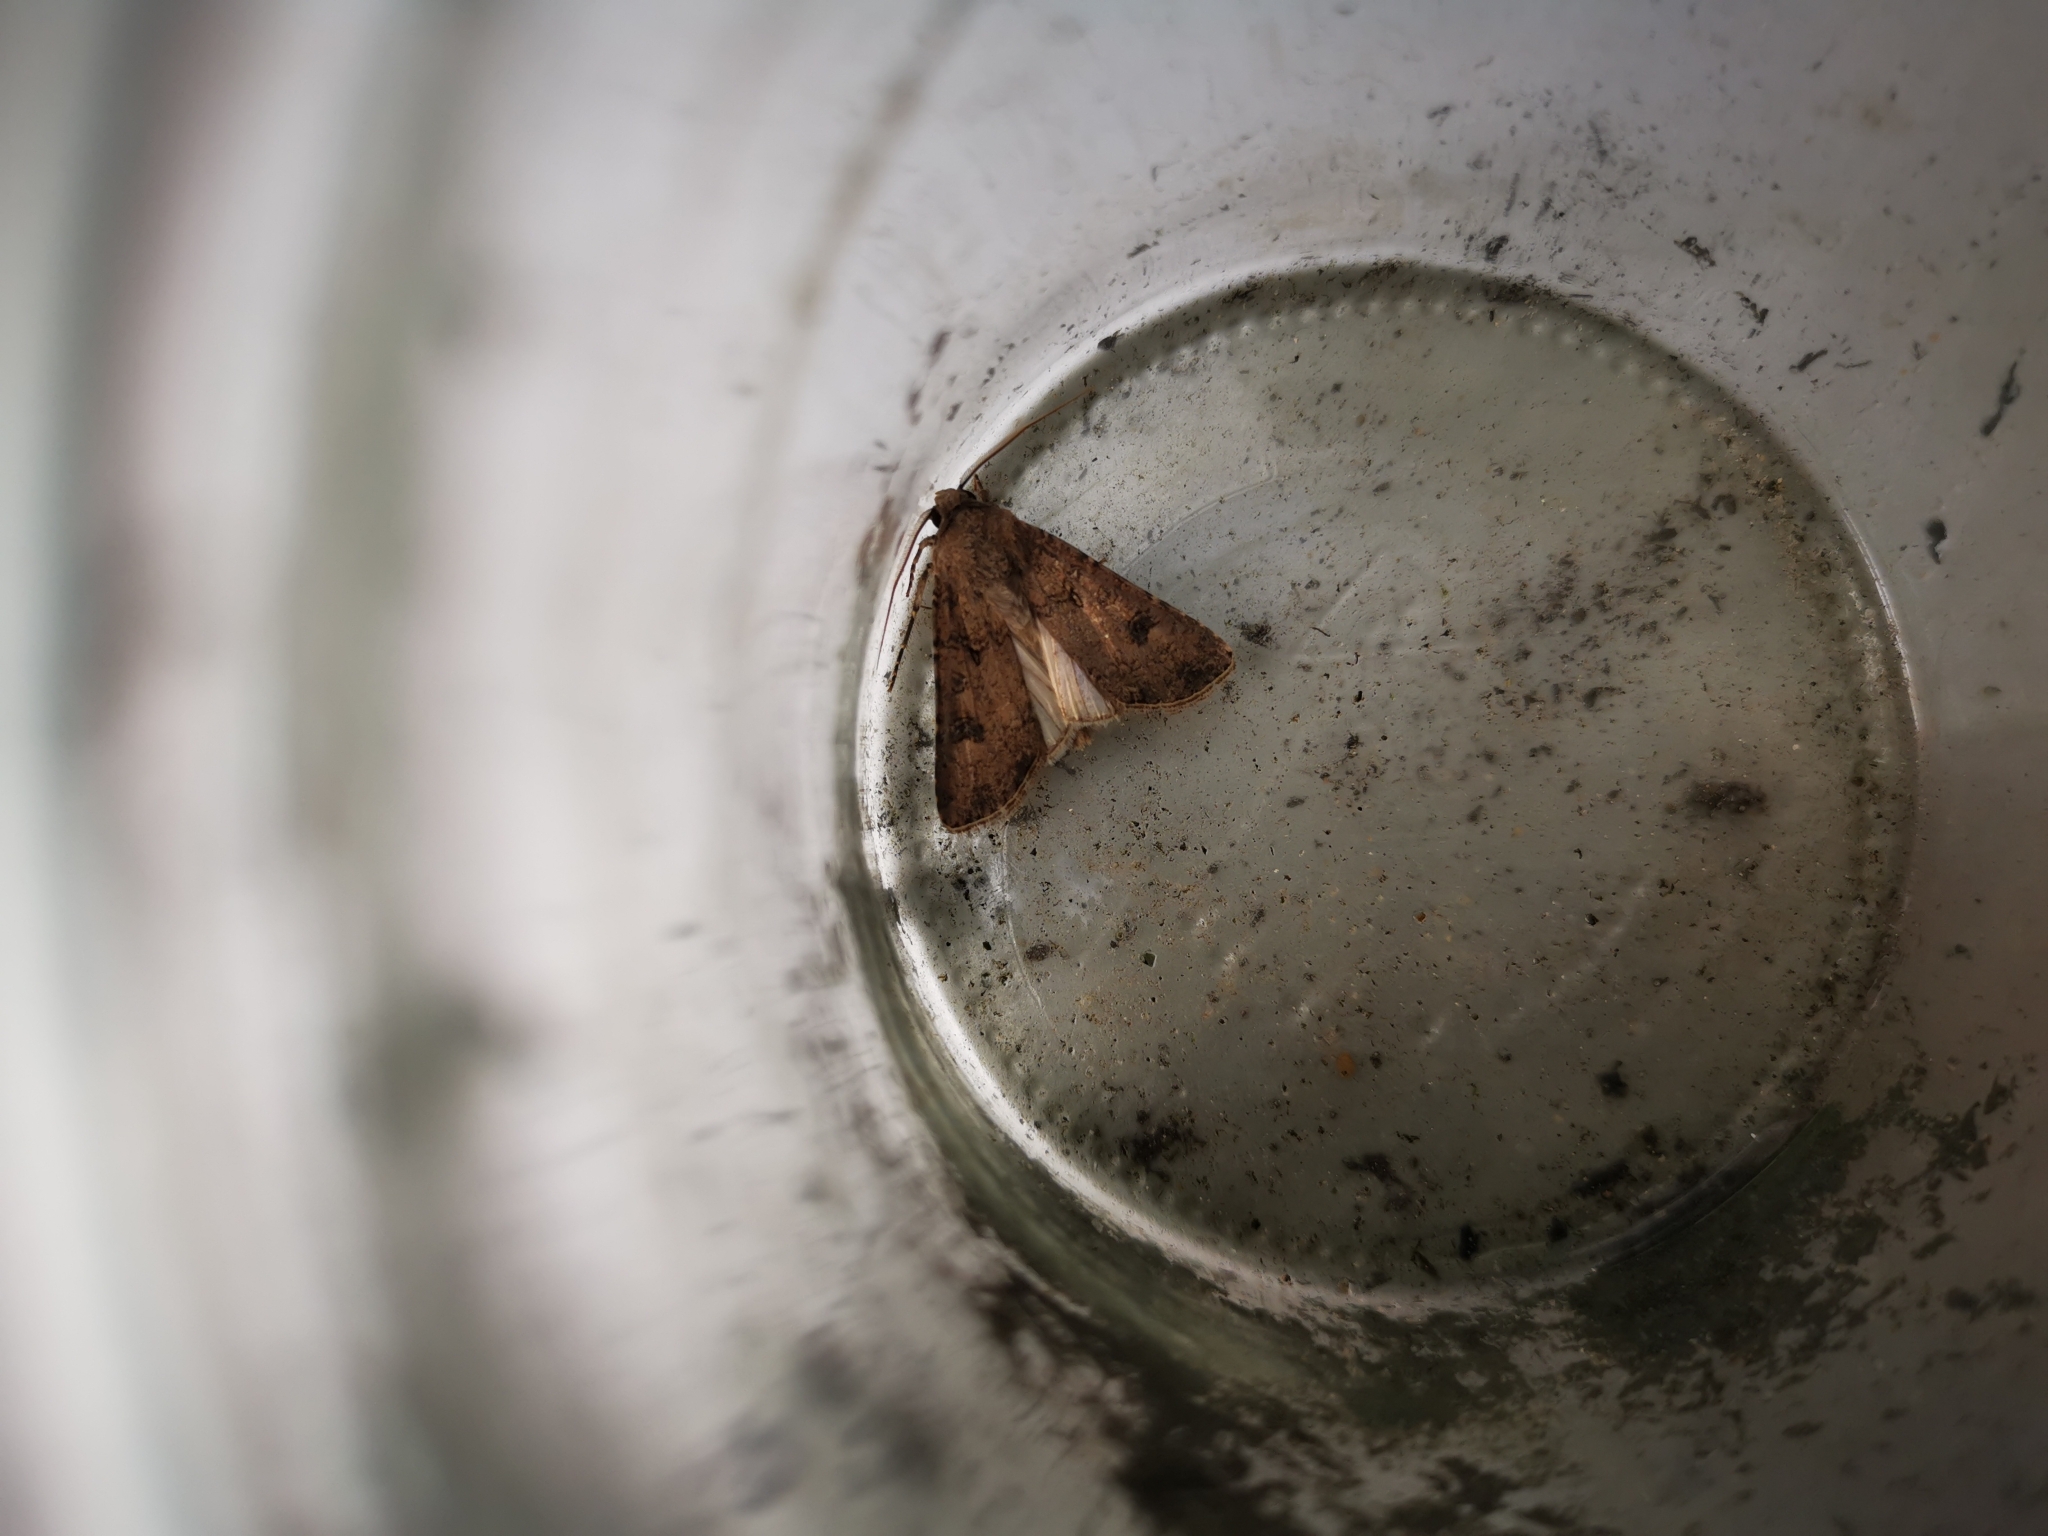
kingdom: Animalia
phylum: Arthropoda
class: Insecta
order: Lepidoptera
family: Noctuidae
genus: Agrotis
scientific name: Agrotis segetum
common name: Turnip moth
